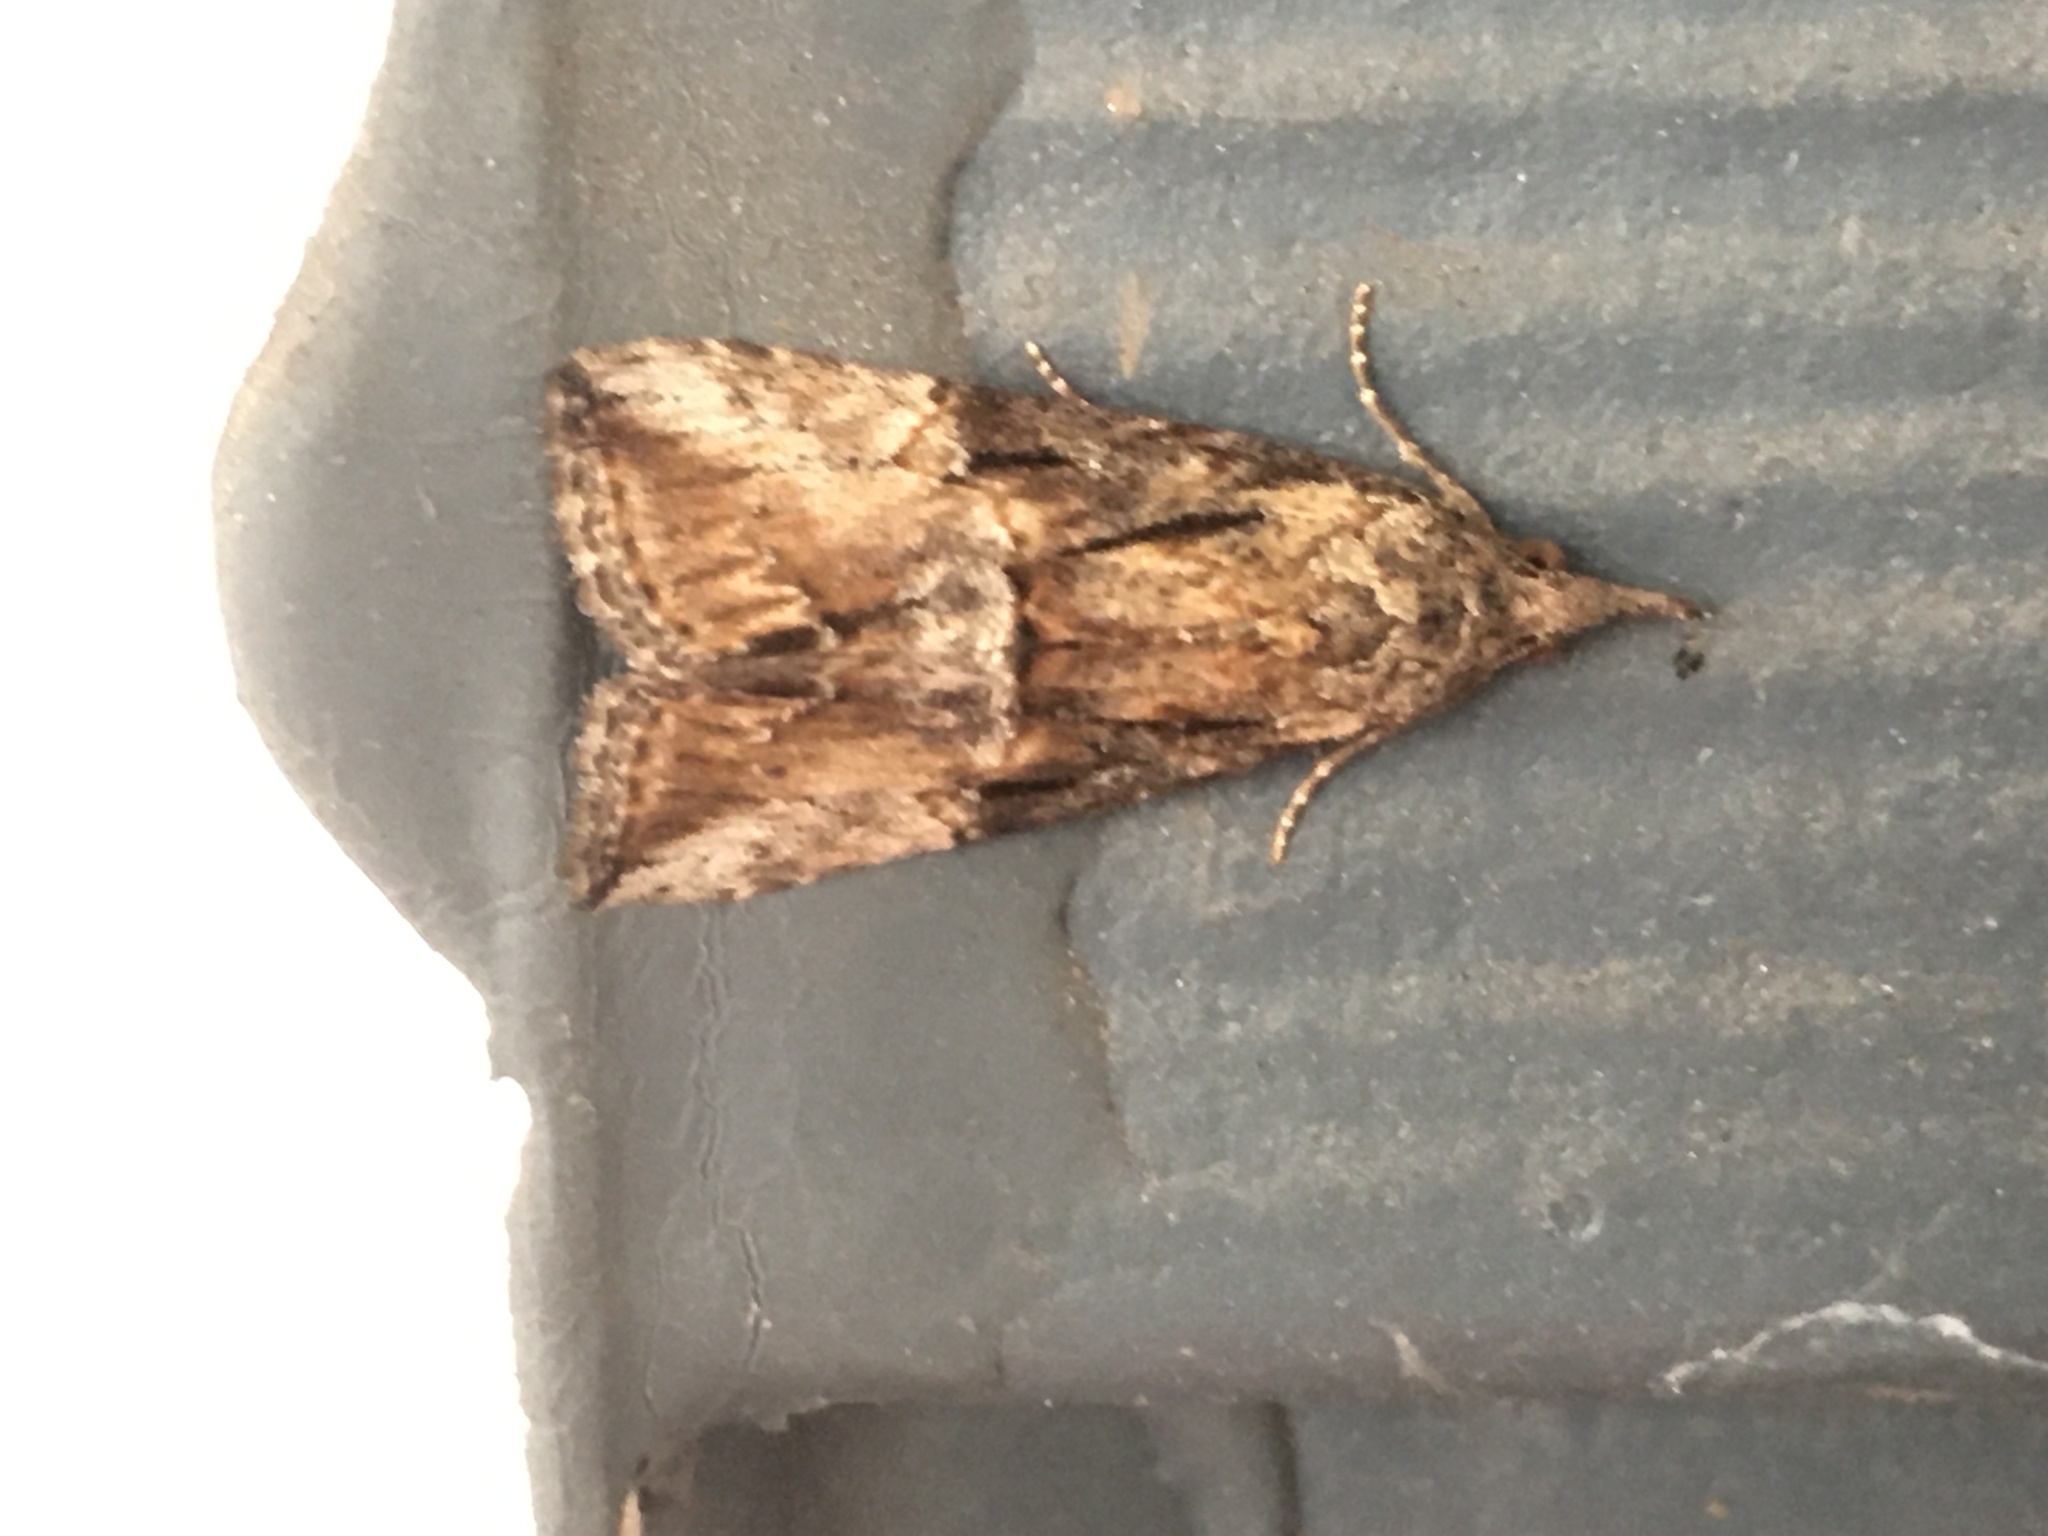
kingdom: Animalia
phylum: Arthropoda
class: Insecta
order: Lepidoptera
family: Erebidae
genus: Hypena
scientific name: Hypena scabra
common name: Green cloverworm
